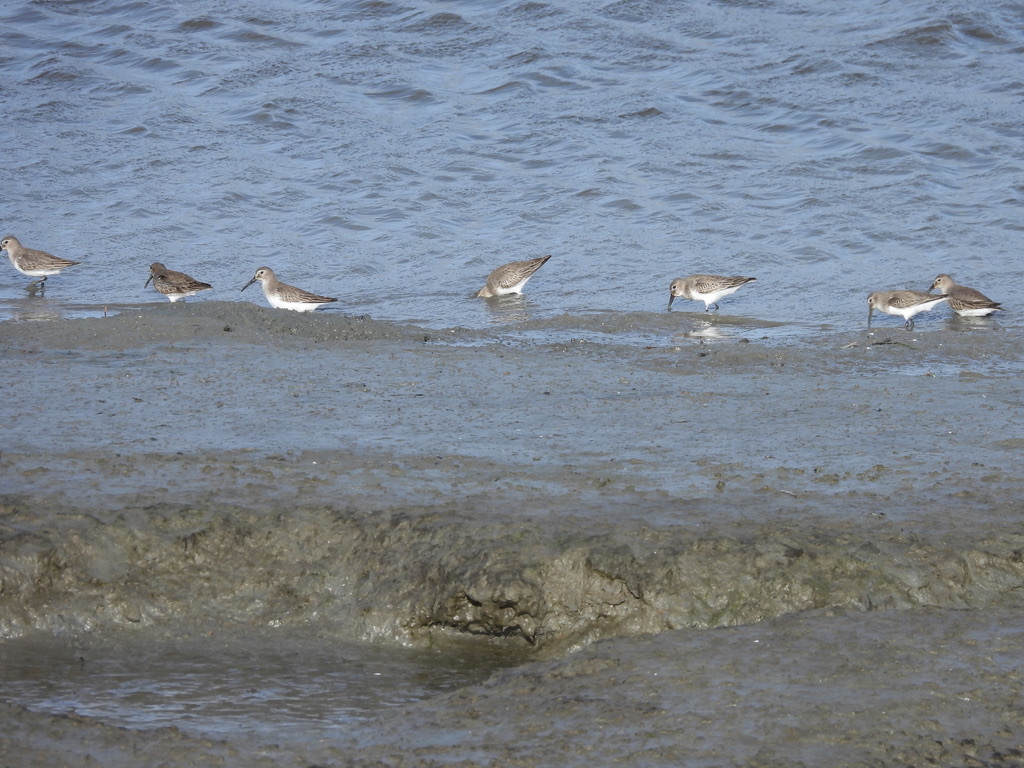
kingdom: Animalia
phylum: Chordata
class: Aves
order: Charadriiformes
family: Scolopacidae
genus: Calidris
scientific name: Calidris alpina
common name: Dunlin
